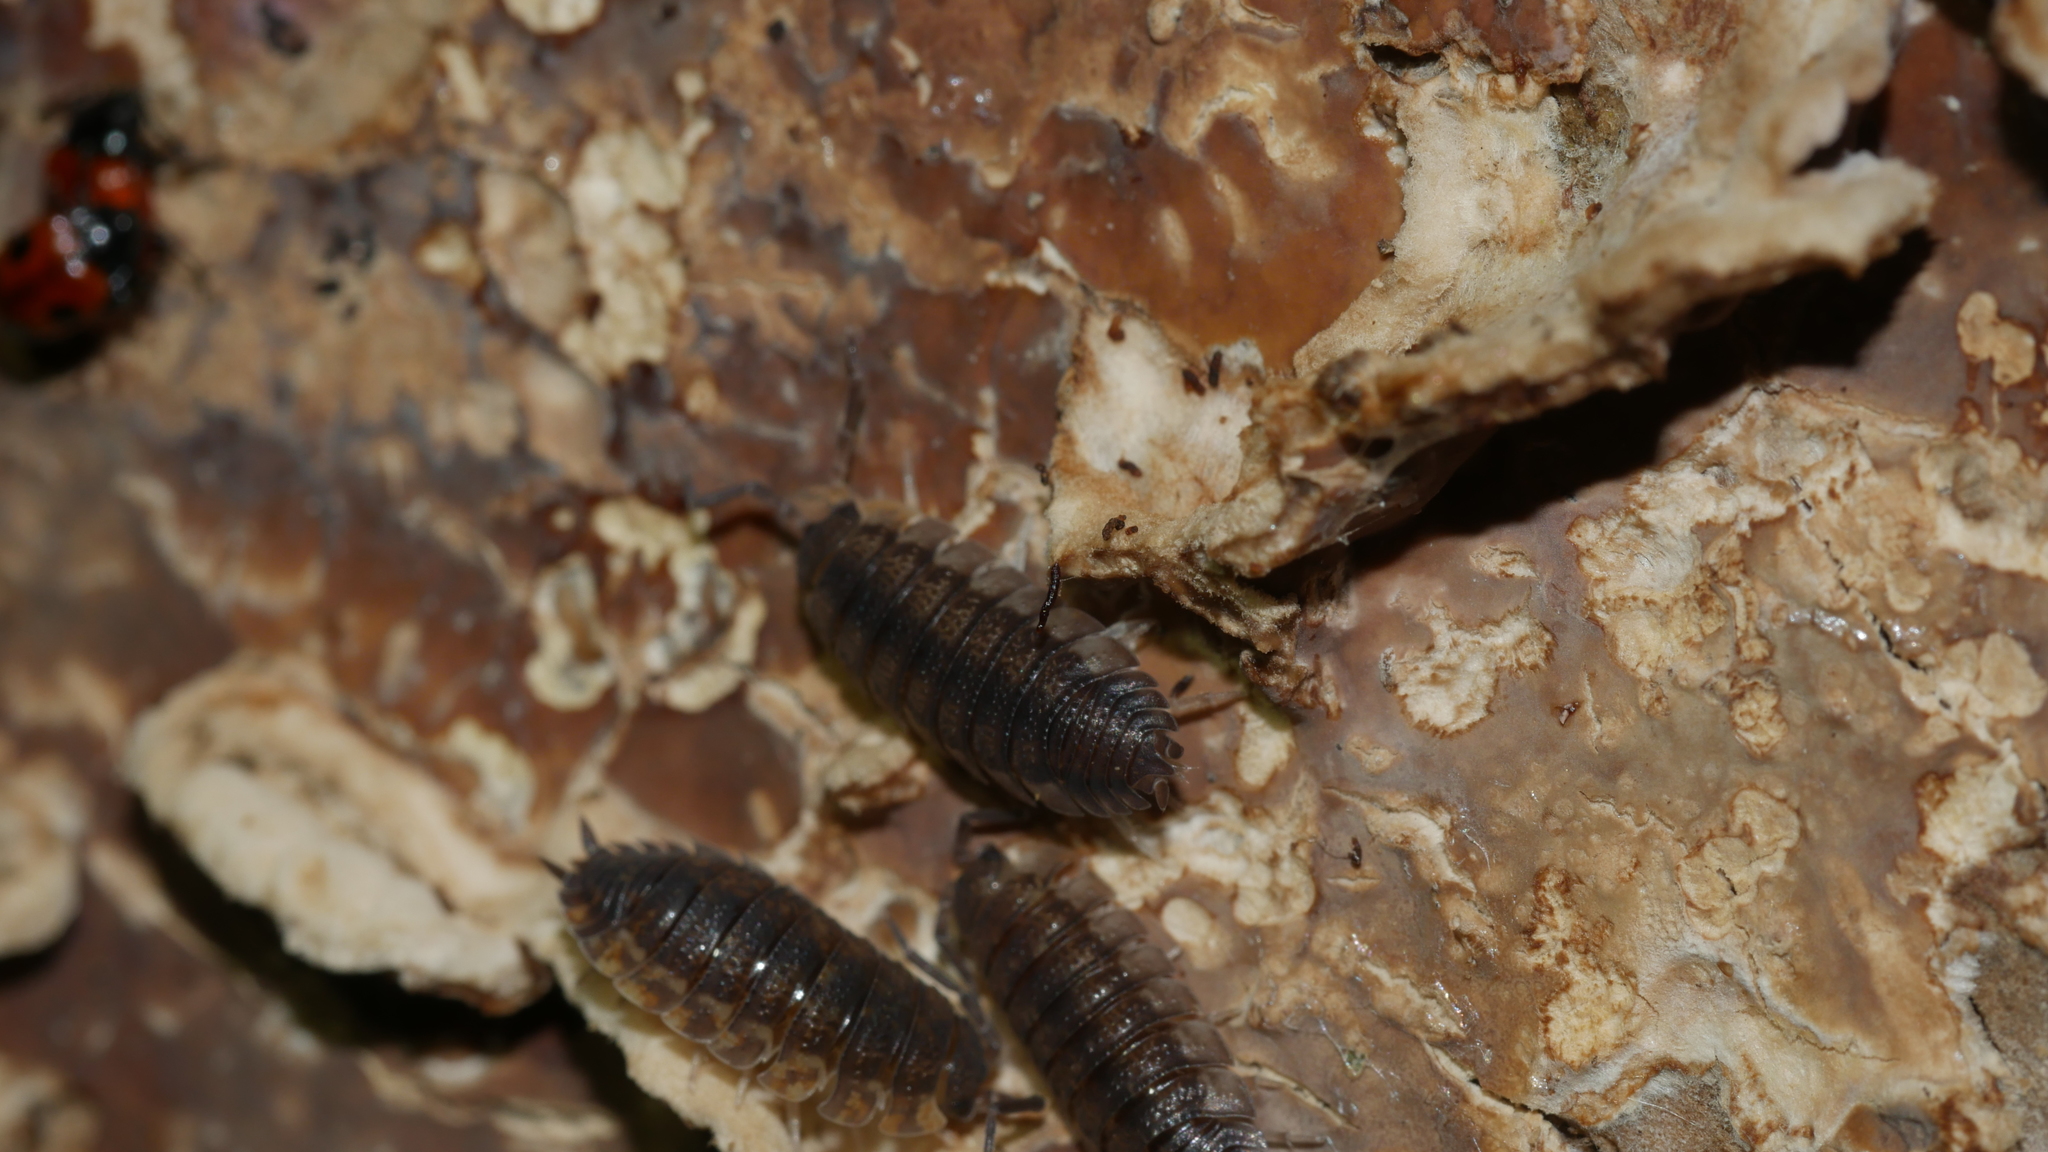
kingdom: Animalia
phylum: Arthropoda
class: Malacostraca
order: Isopoda
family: Porcellionidae
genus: Porcellio
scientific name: Porcellio scaber
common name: Common rough woodlouse
